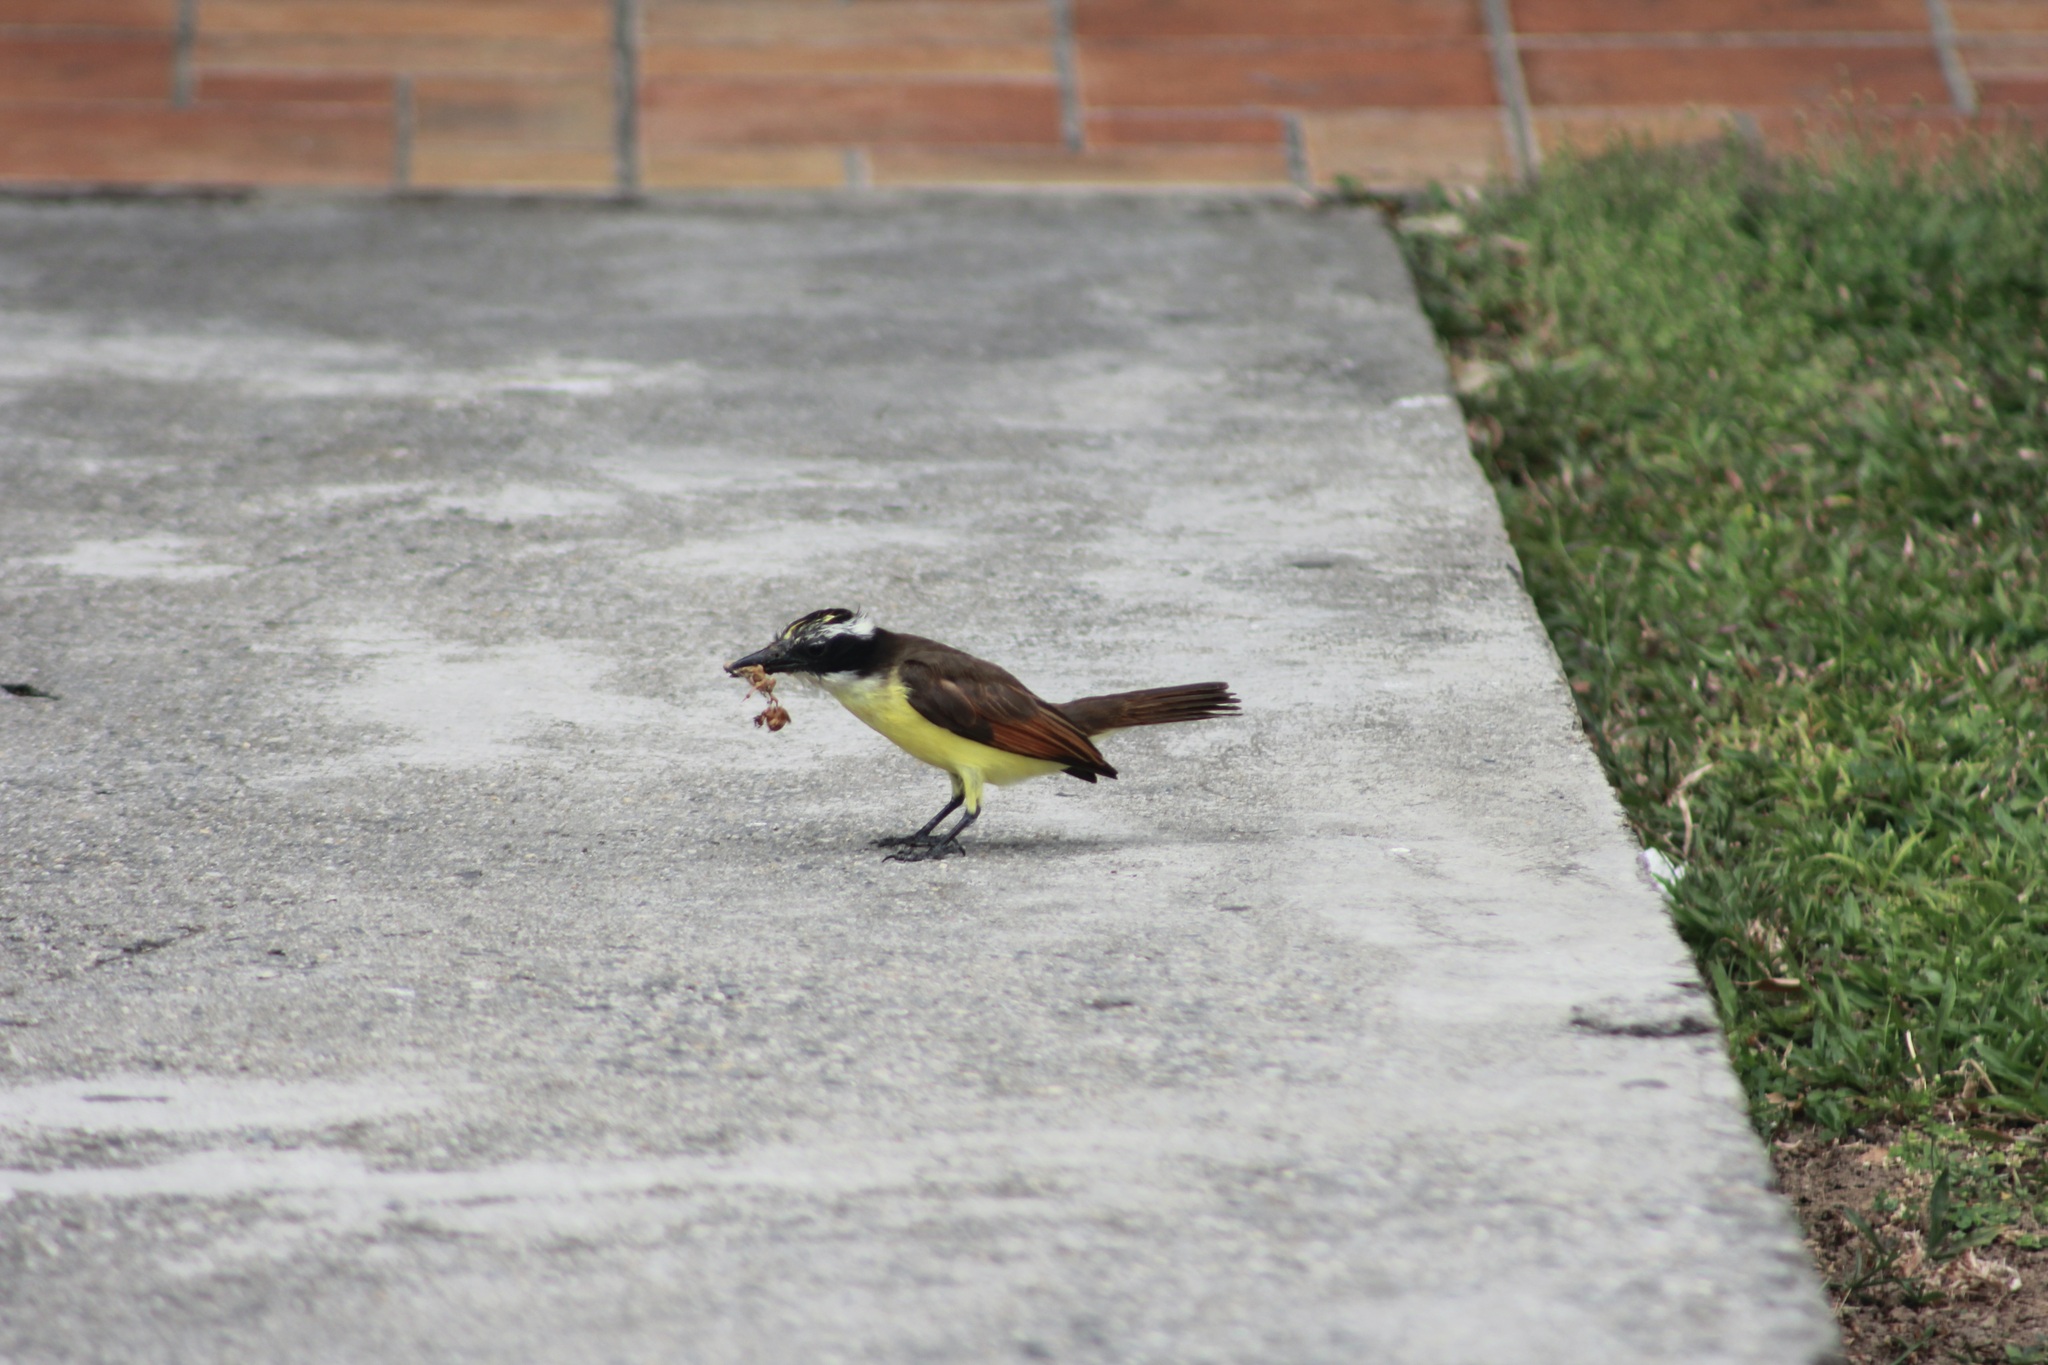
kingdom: Animalia
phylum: Chordata
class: Aves
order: Passeriformes
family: Tyrannidae
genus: Pitangus
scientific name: Pitangus sulphuratus
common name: Great kiskadee
